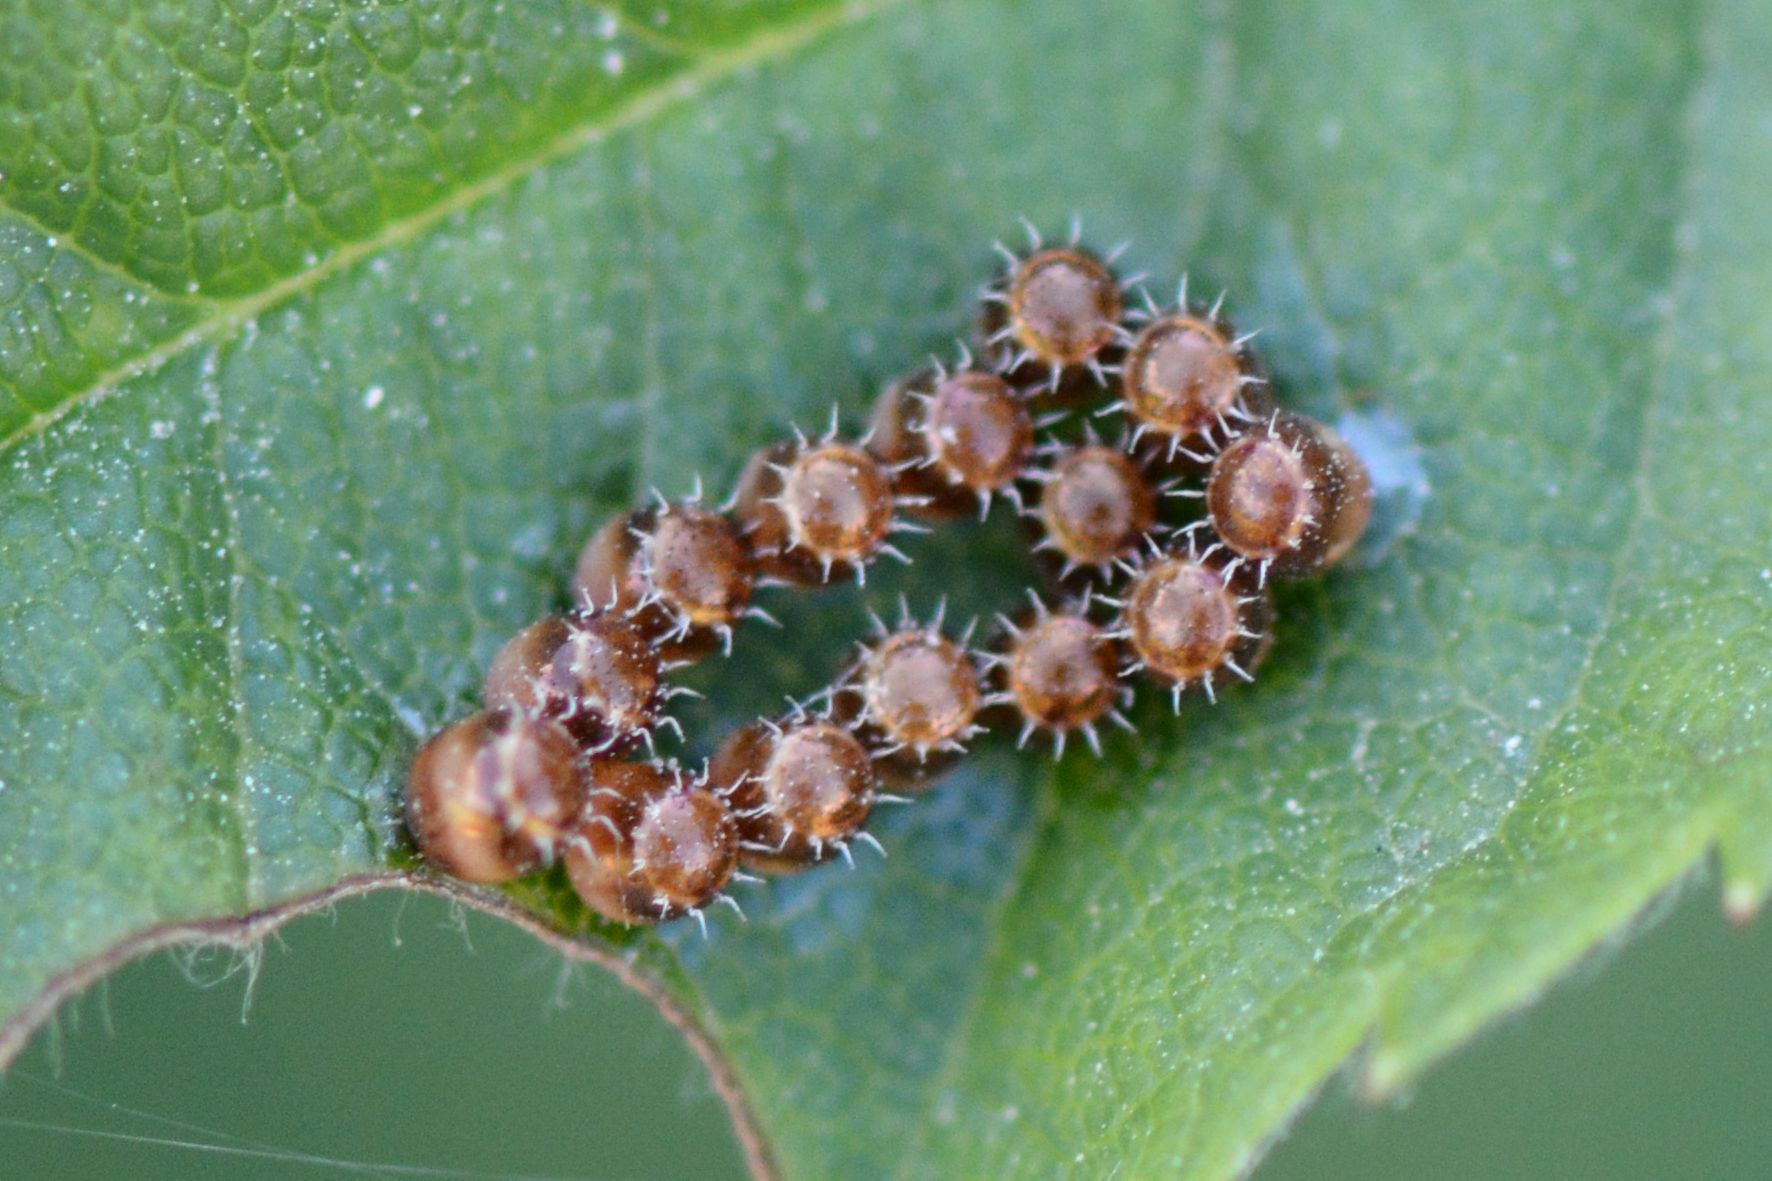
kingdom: Animalia
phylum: Arthropoda
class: Insecta
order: Hemiptera
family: Pentatomidae
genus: Arma
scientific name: Arma custos
